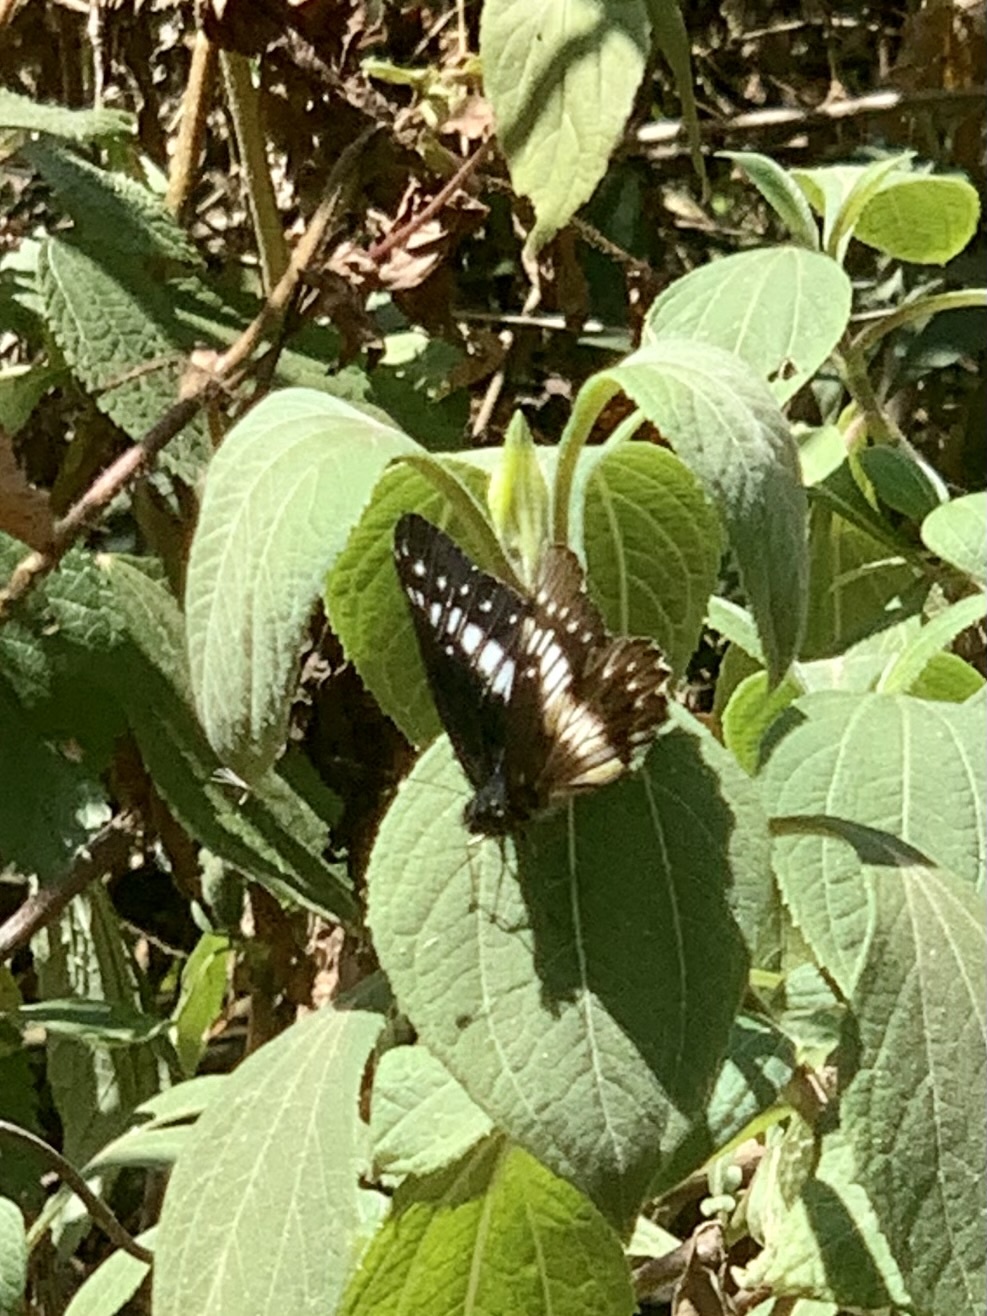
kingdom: Animalia
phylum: Arthropoda
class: Insecta
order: Lepidoptera
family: Pieridae
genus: Archonias
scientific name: Archonias flisa
